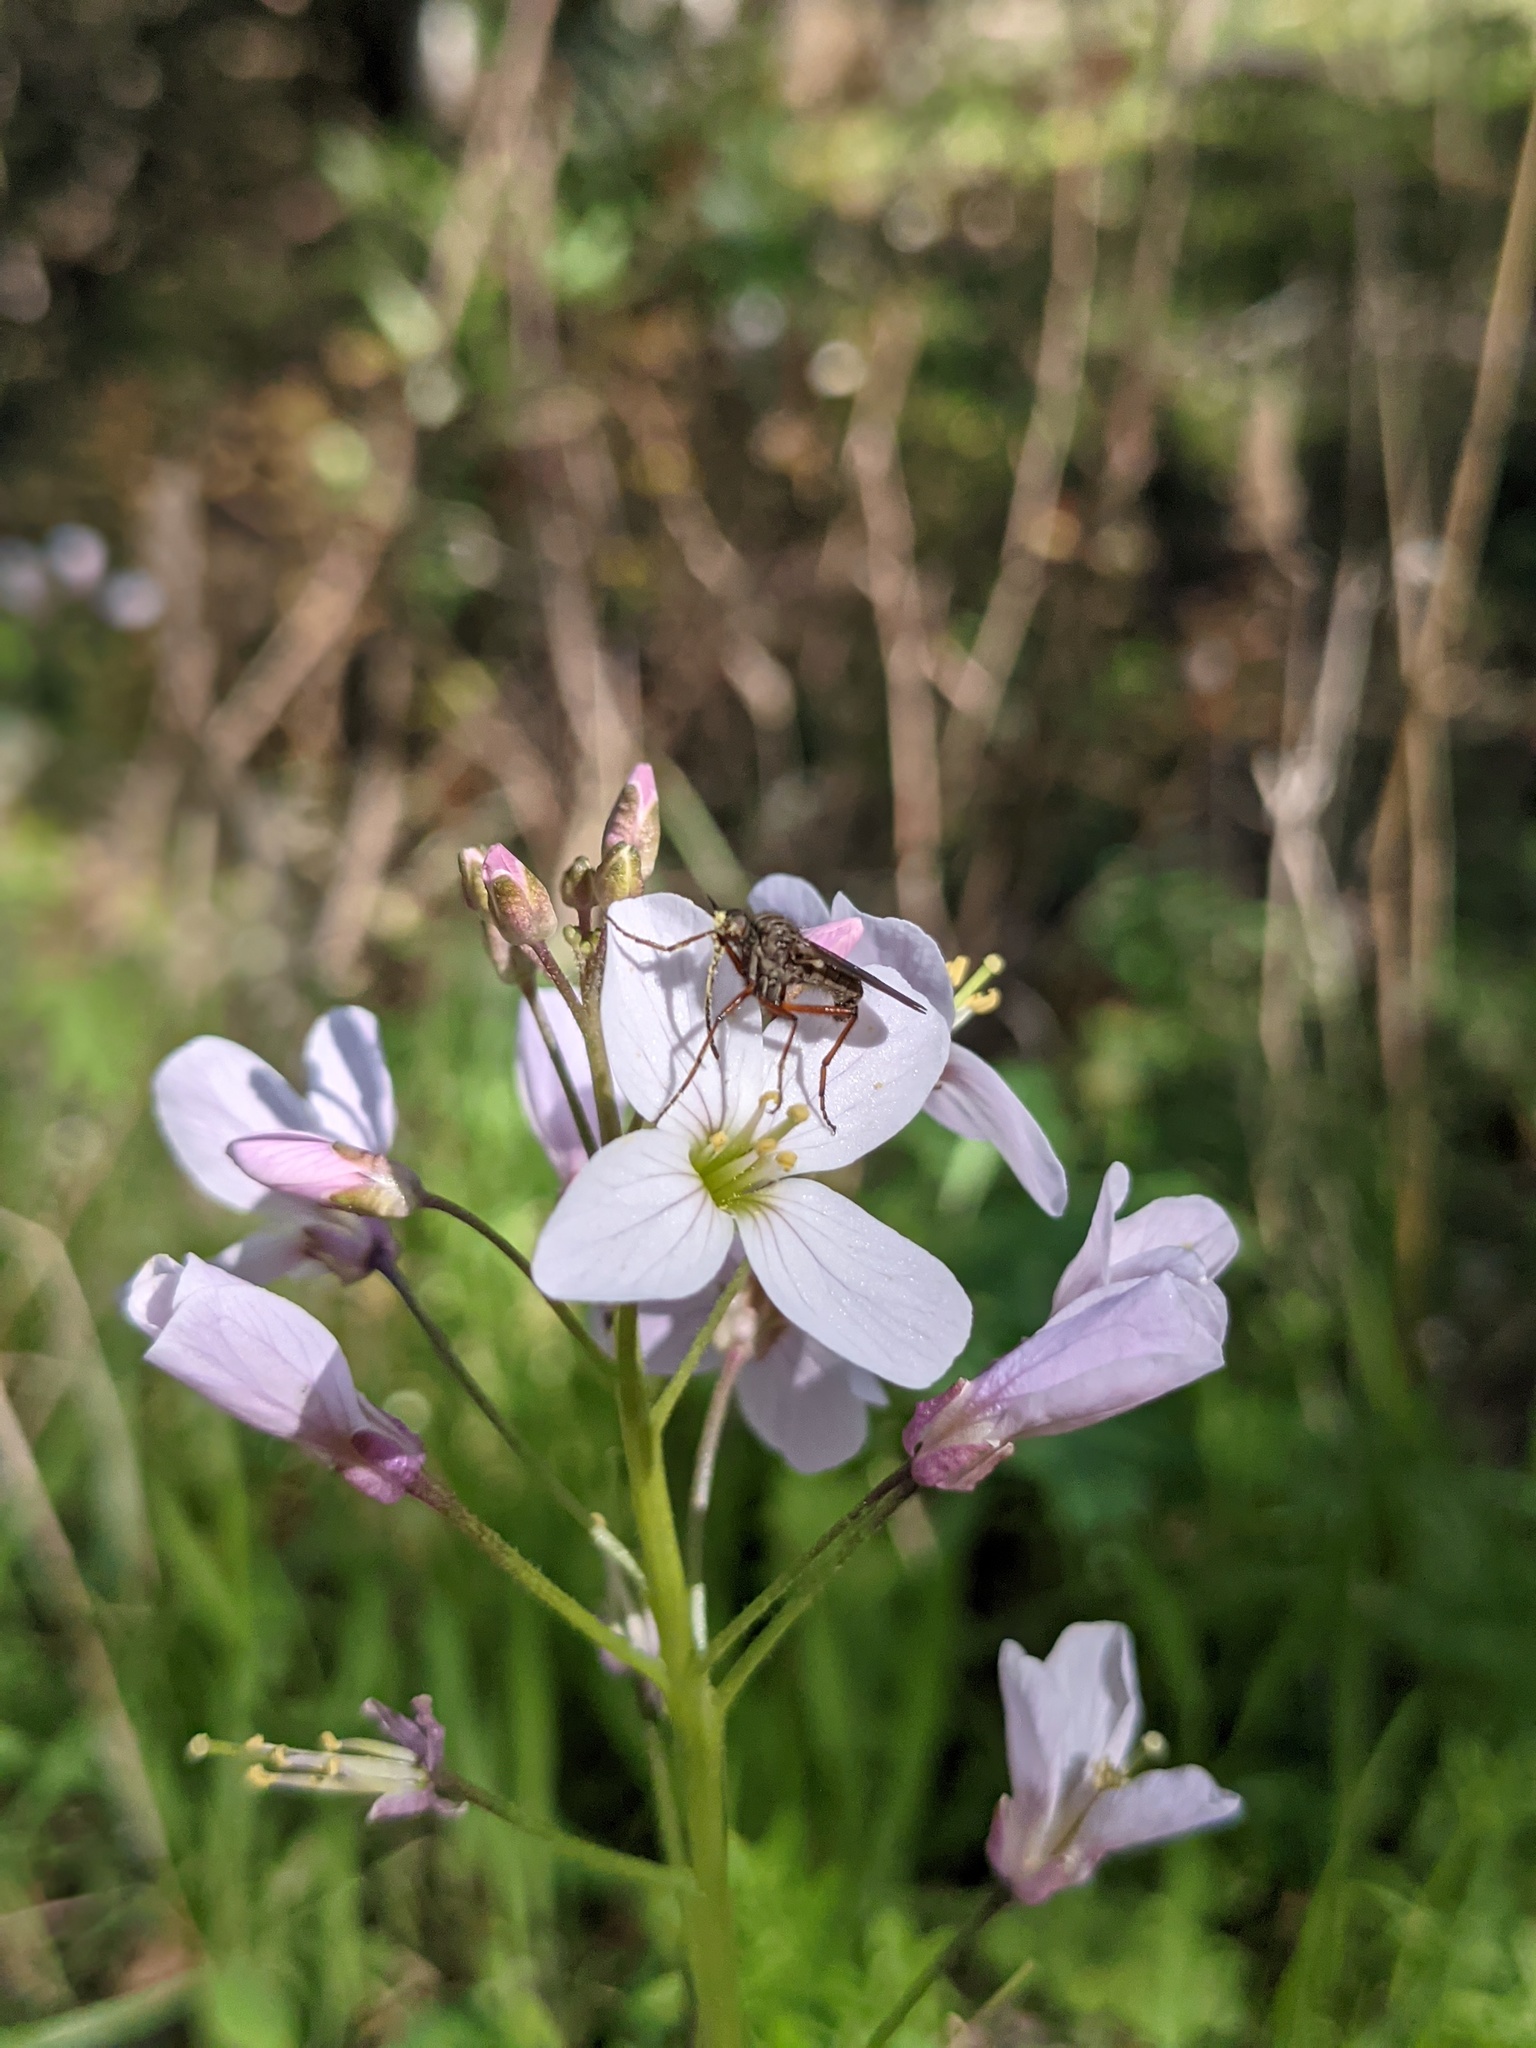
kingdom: Plantae
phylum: Tracheophyta
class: Magnoliopsida
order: Brassicales
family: Brassicaceae
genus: Cardamine
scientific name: Cardamine californica
